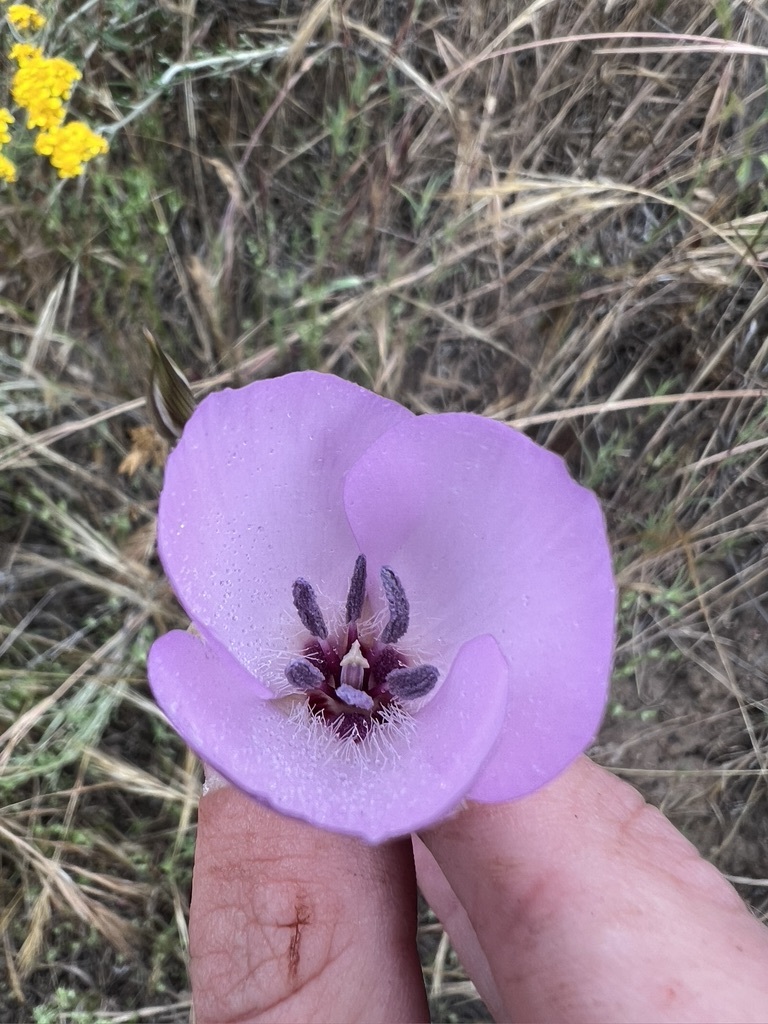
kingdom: Plantae
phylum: Tracheophyta
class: Liliopsida
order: Liliales
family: Liliaceae
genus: Calochortus
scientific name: Calochortus splendens
